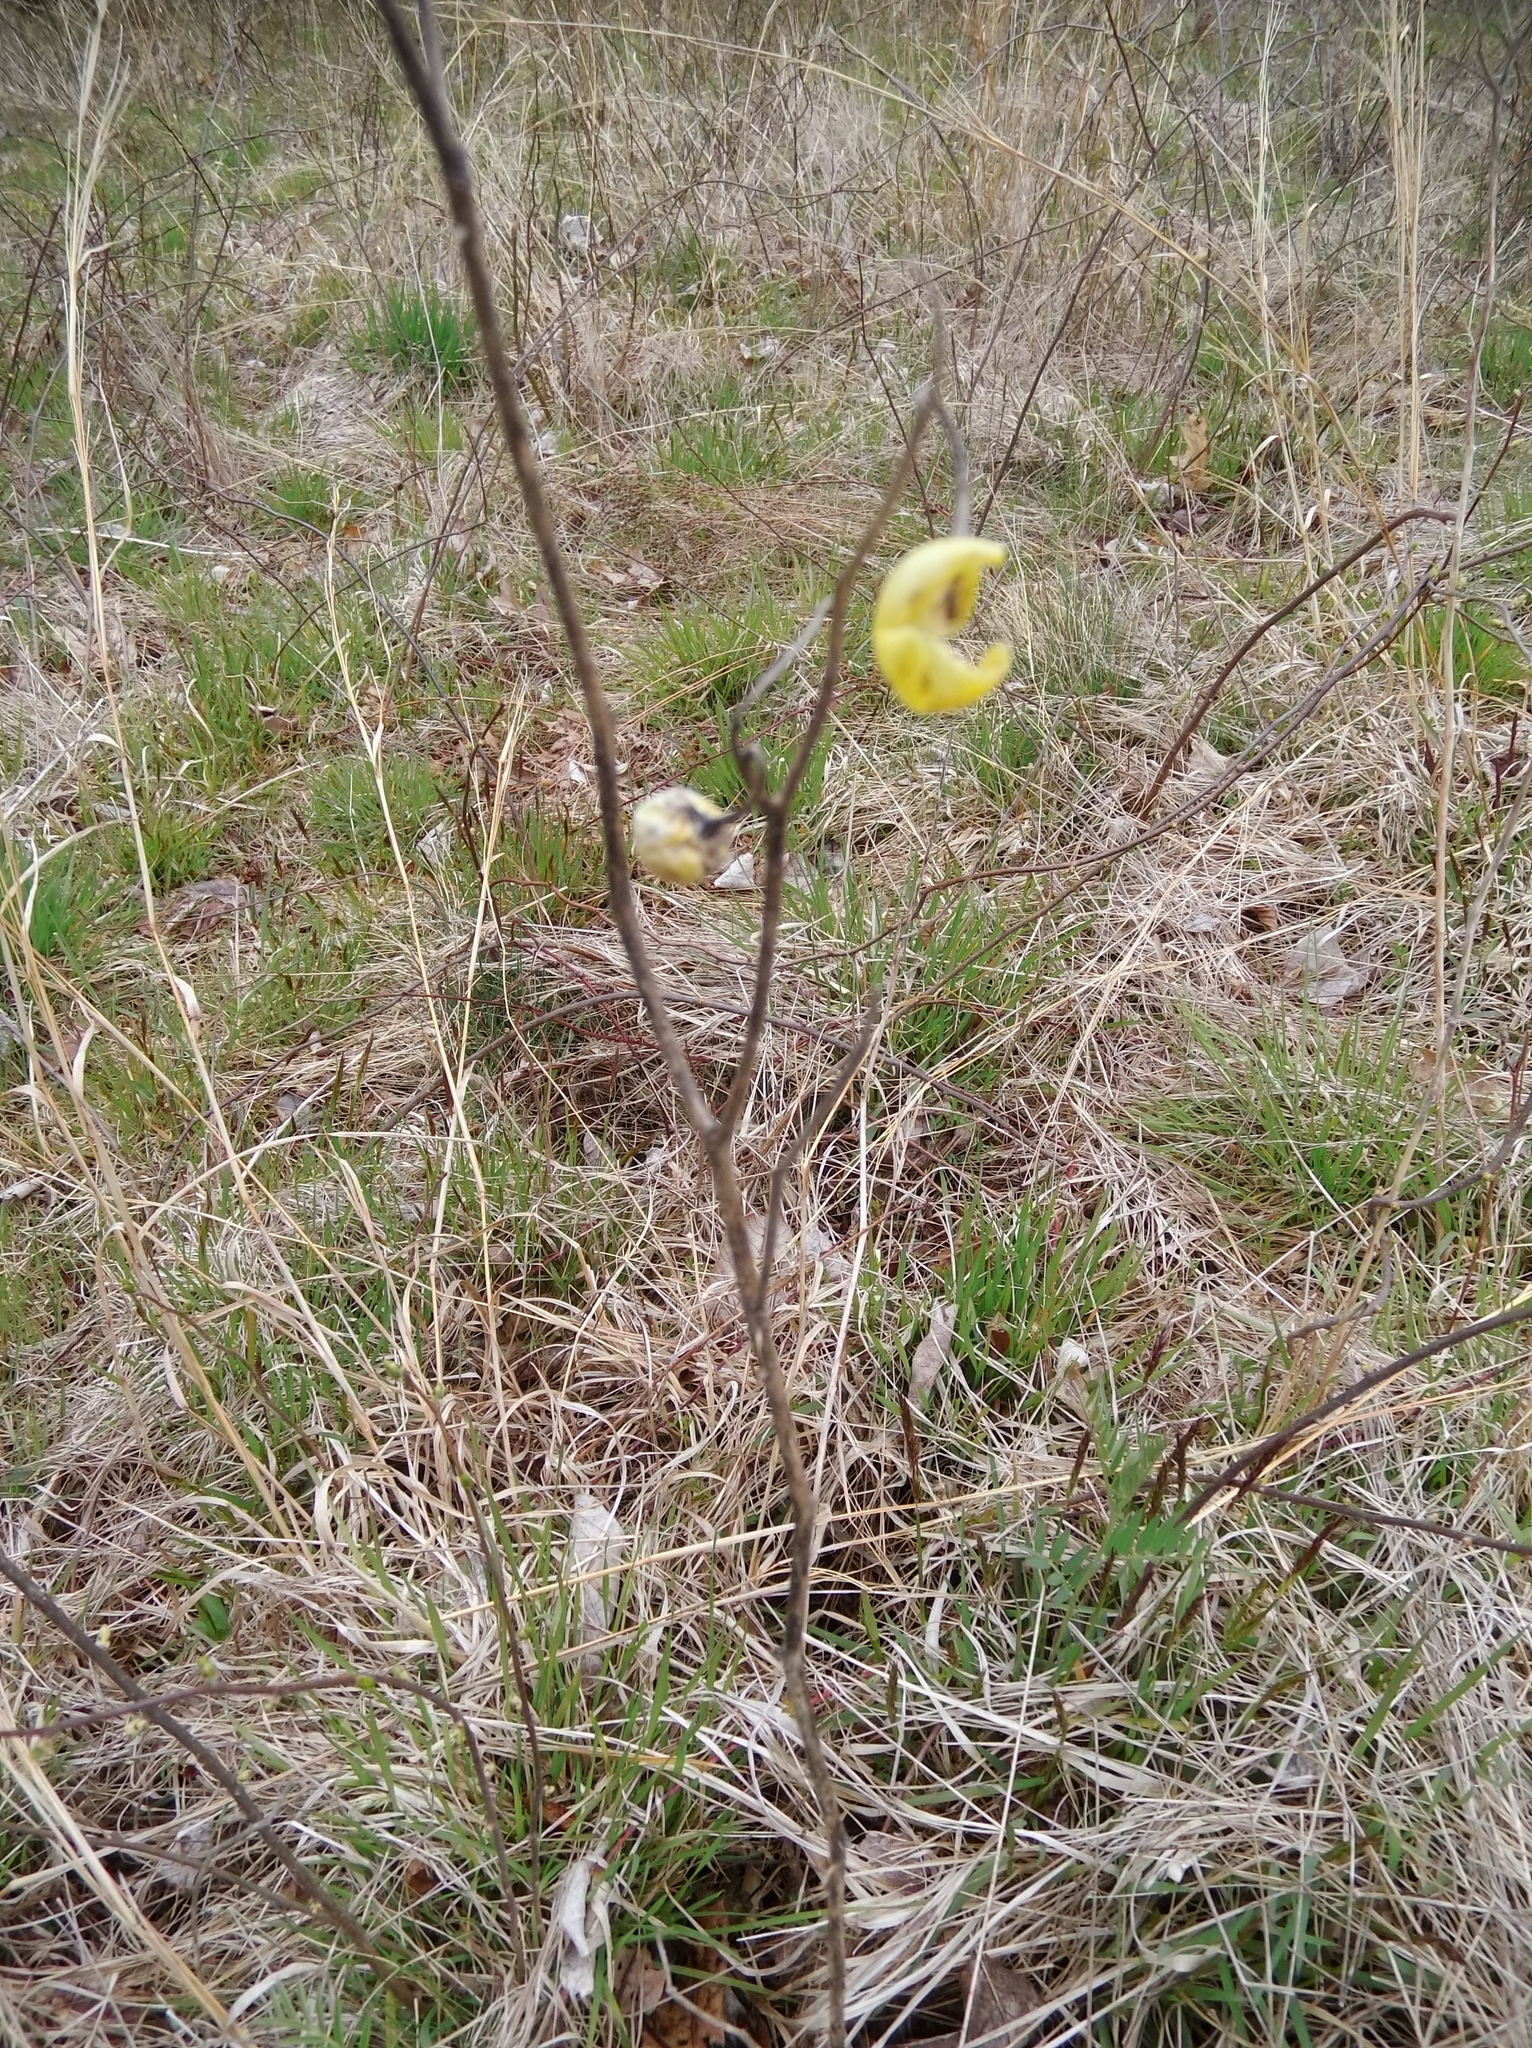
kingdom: Plantae
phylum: Tracheophyta
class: Magnoliopsida
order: Solanales
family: Solanaceae
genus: Solanum
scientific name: Solanum carolinense
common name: Horse-nettle
